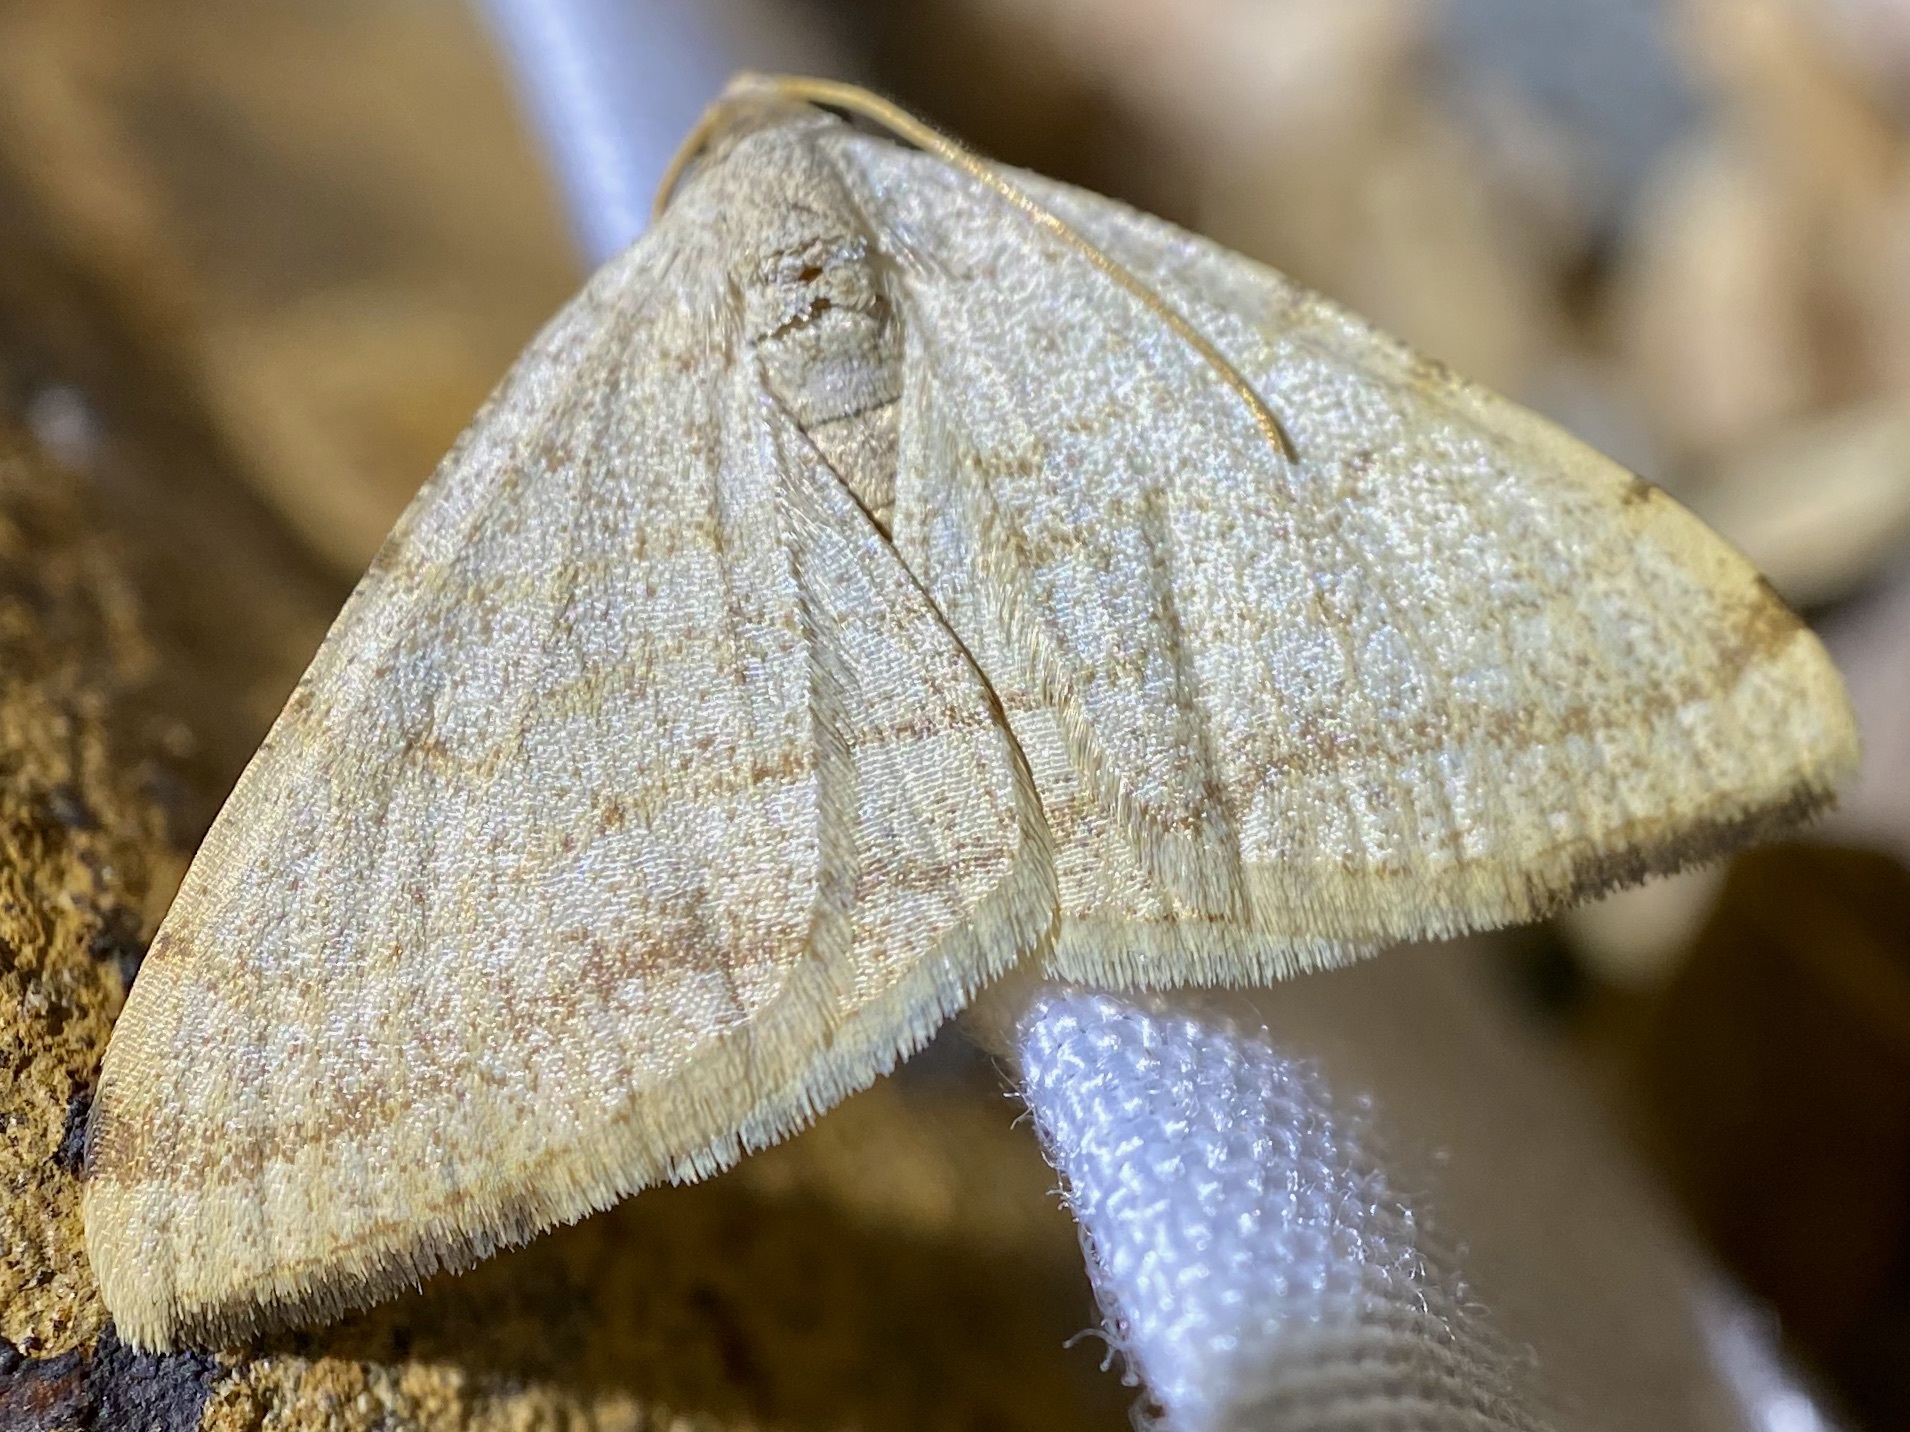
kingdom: Animalia
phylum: Arthropoda
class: Insecta
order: Lepidoptera
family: Geometridae
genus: Macaria
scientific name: Macaria octolineata
